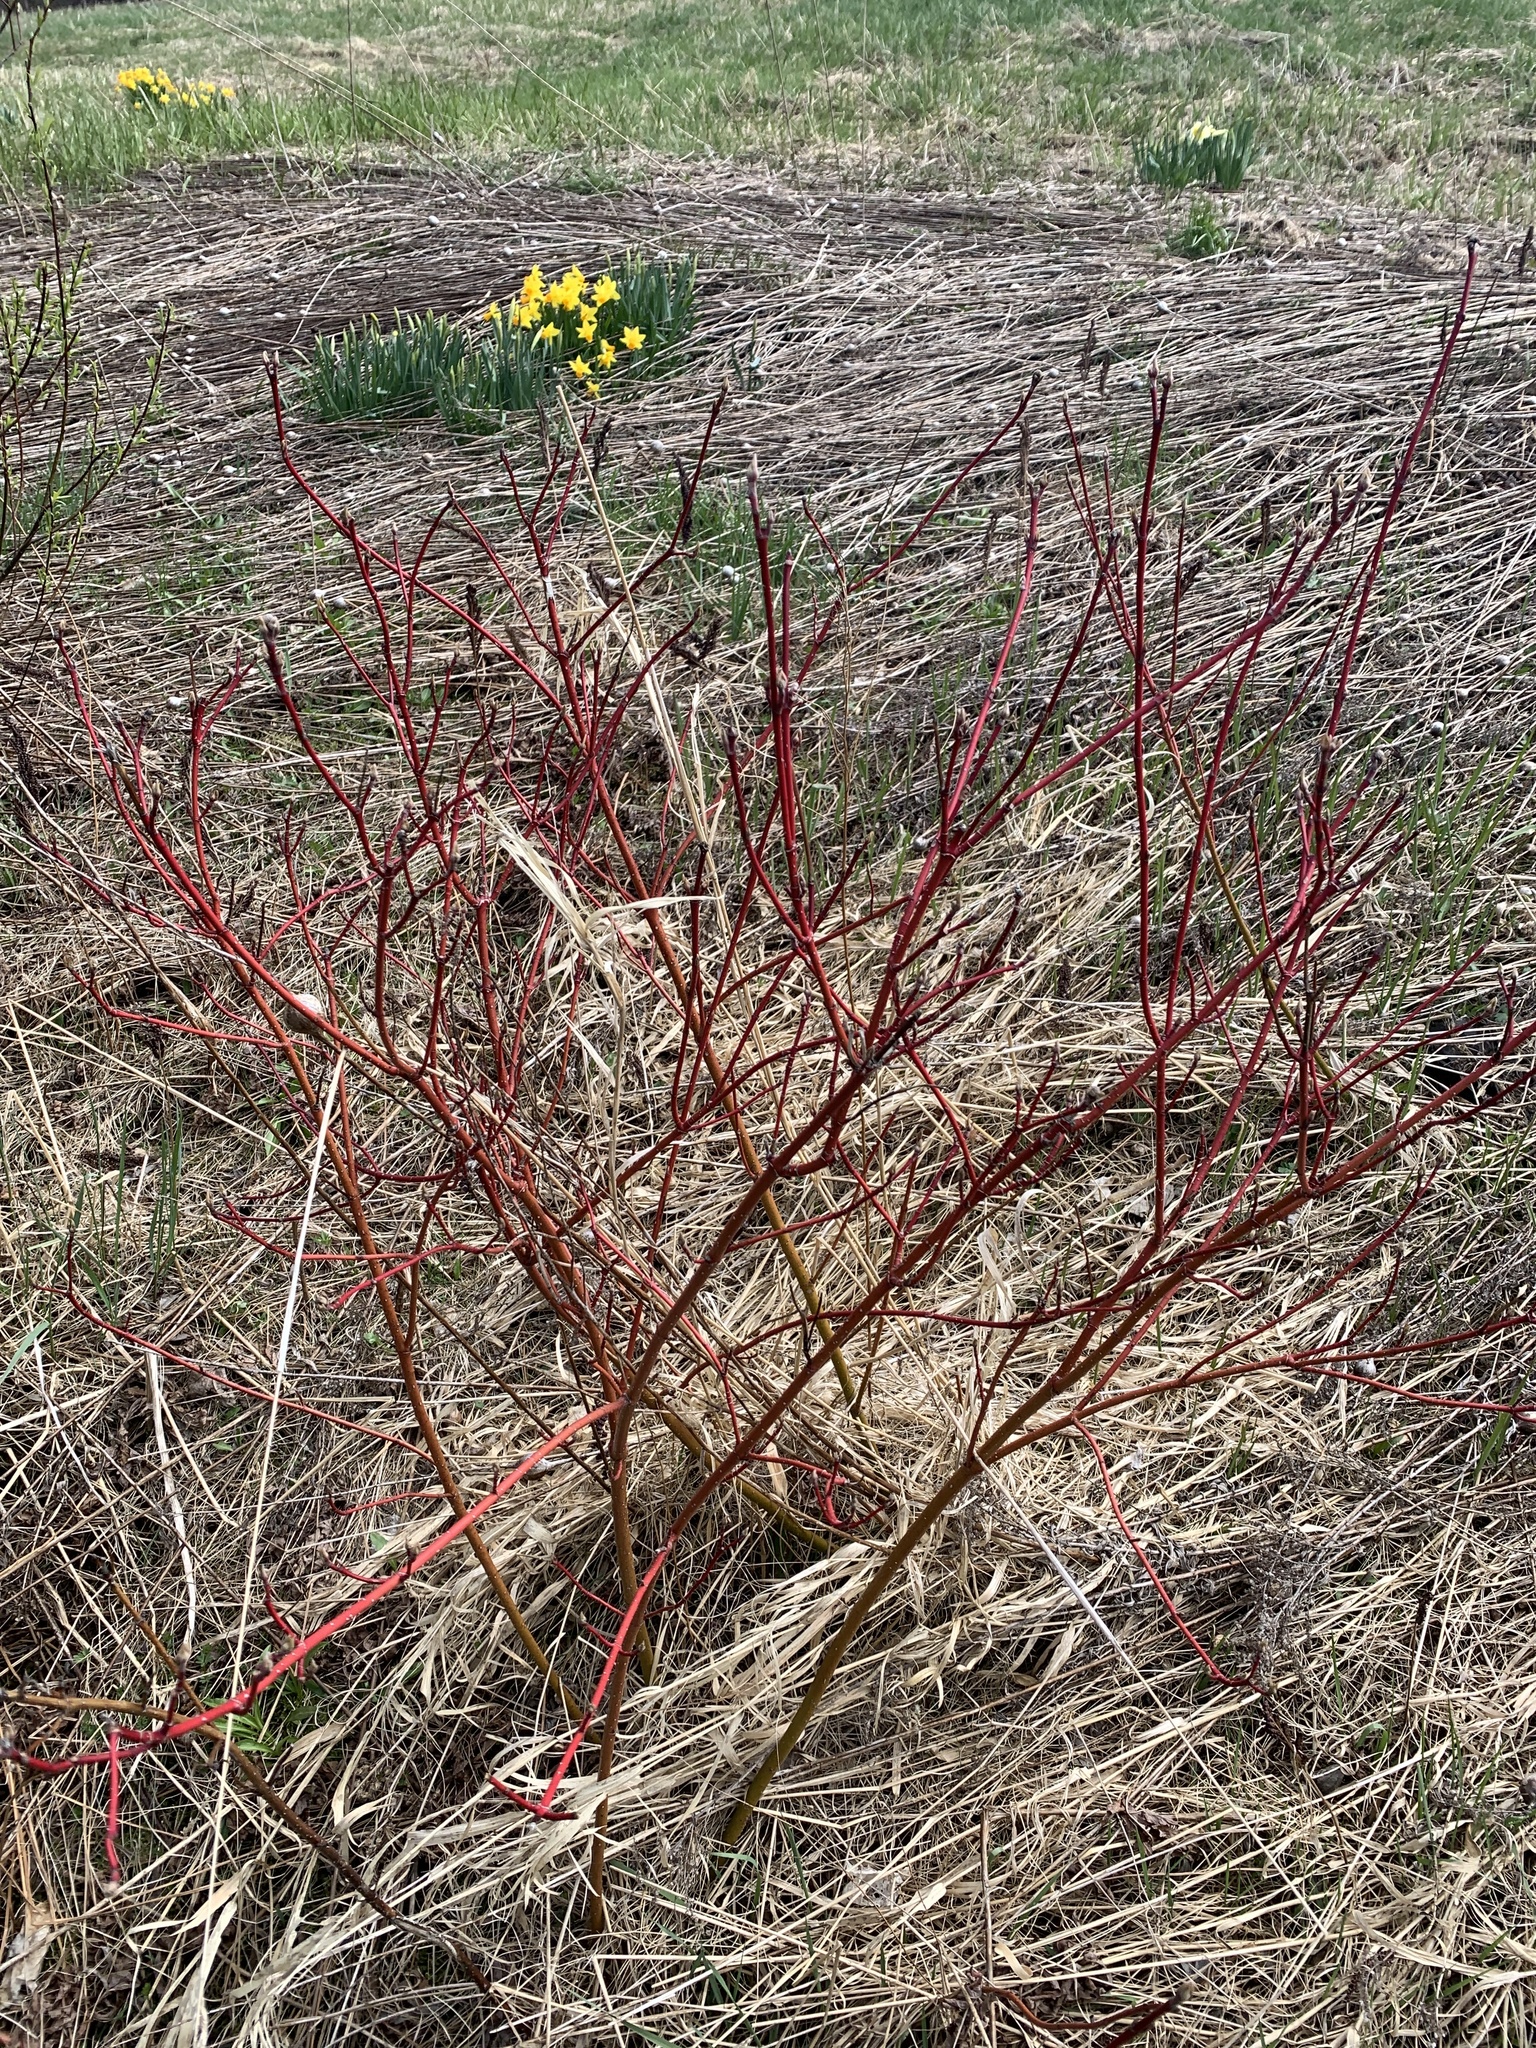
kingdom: Plantae
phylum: Tracheophyta
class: Magnoliopsida
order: Cornales
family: Cornaceae
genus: Cornus
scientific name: Cornus sericea
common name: Red-osier dogwood
